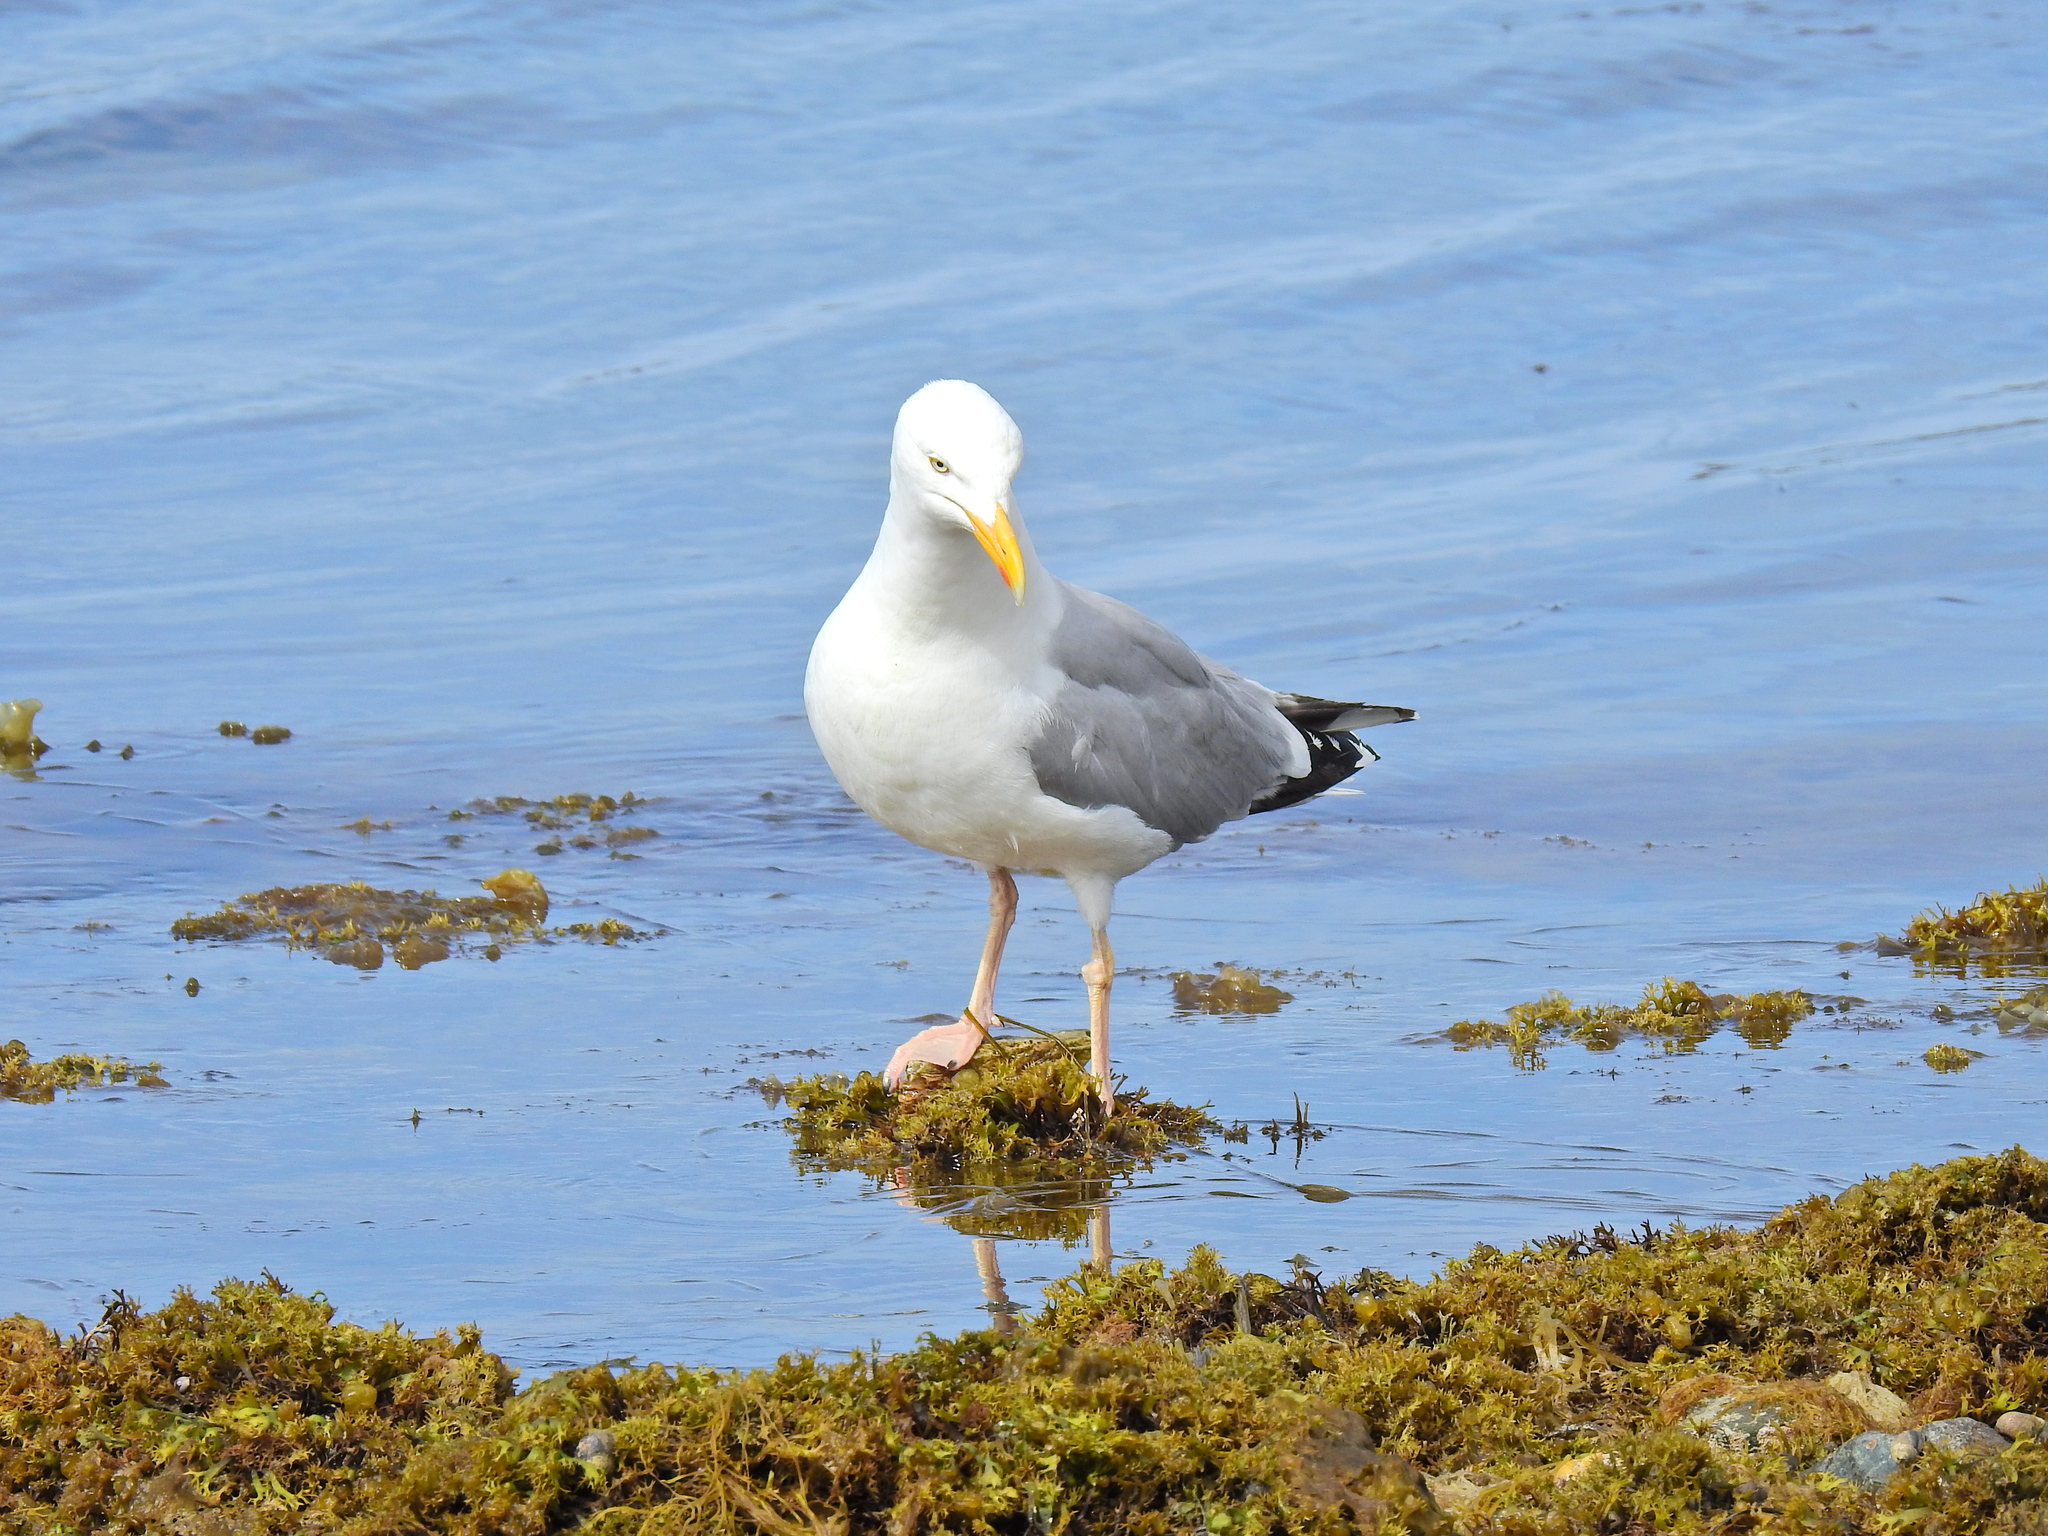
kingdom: Animalia
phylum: Chordata
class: Aves
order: Charadriiformes
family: Laridae
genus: Larus
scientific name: Larus argentatus
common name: Herring gull
